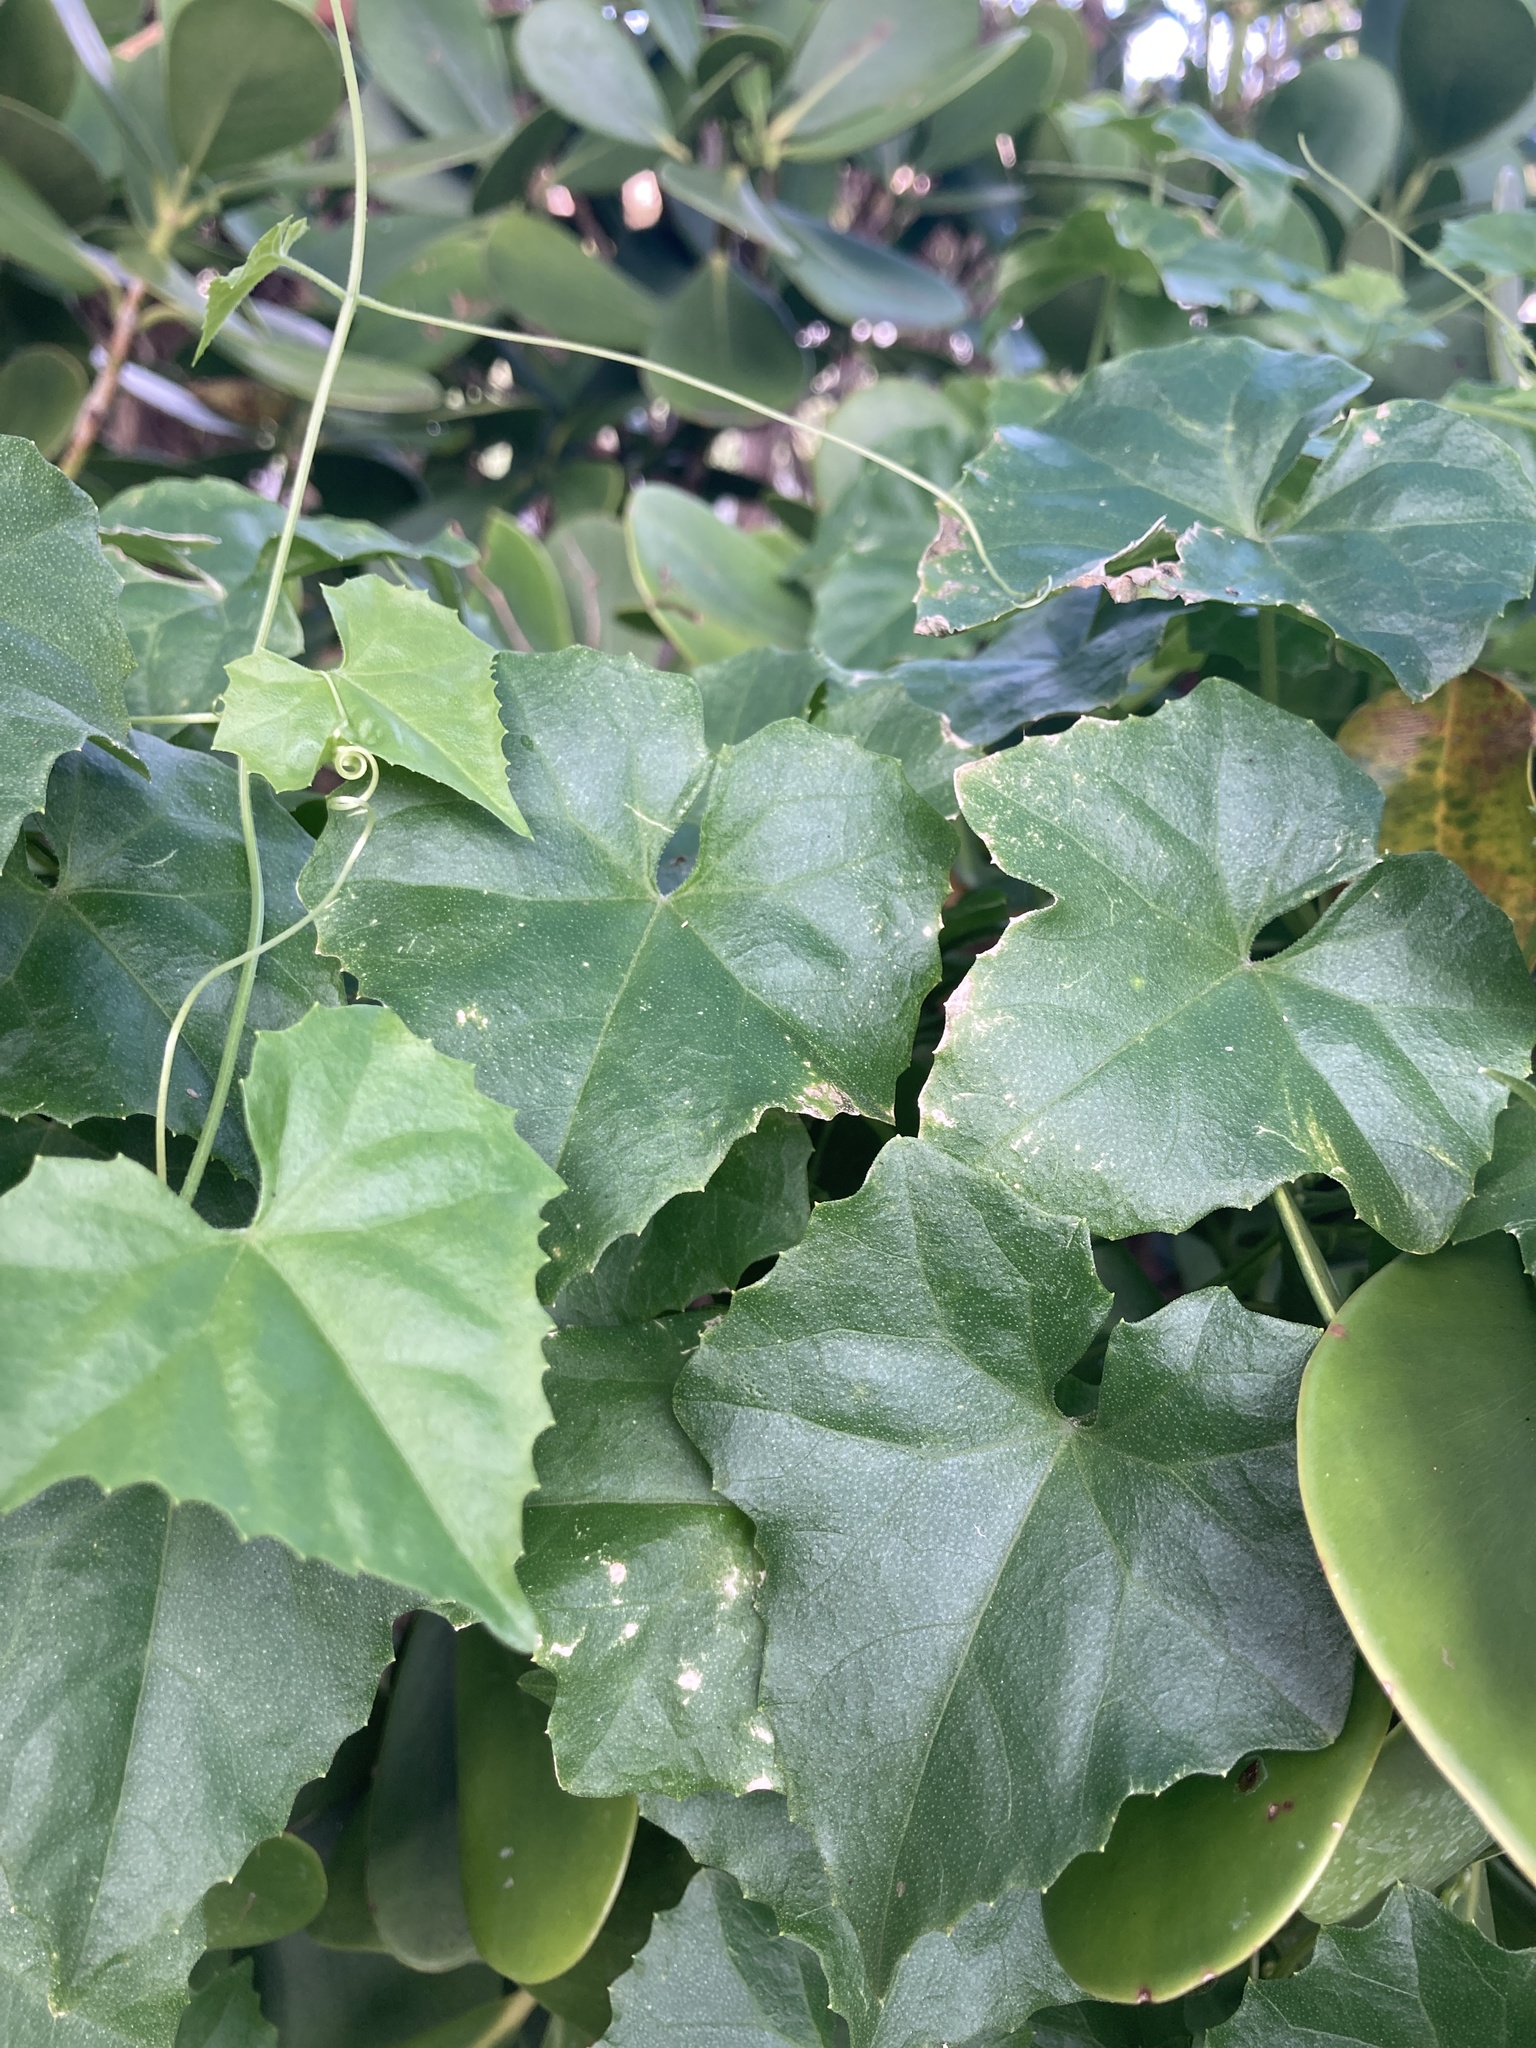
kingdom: Plantae
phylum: Tracheophyta
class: Magnoliopsida
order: Cucurbitales
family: Cucurbitaceae
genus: Melothria
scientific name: Melothria pendula
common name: Creeping-cucumber
